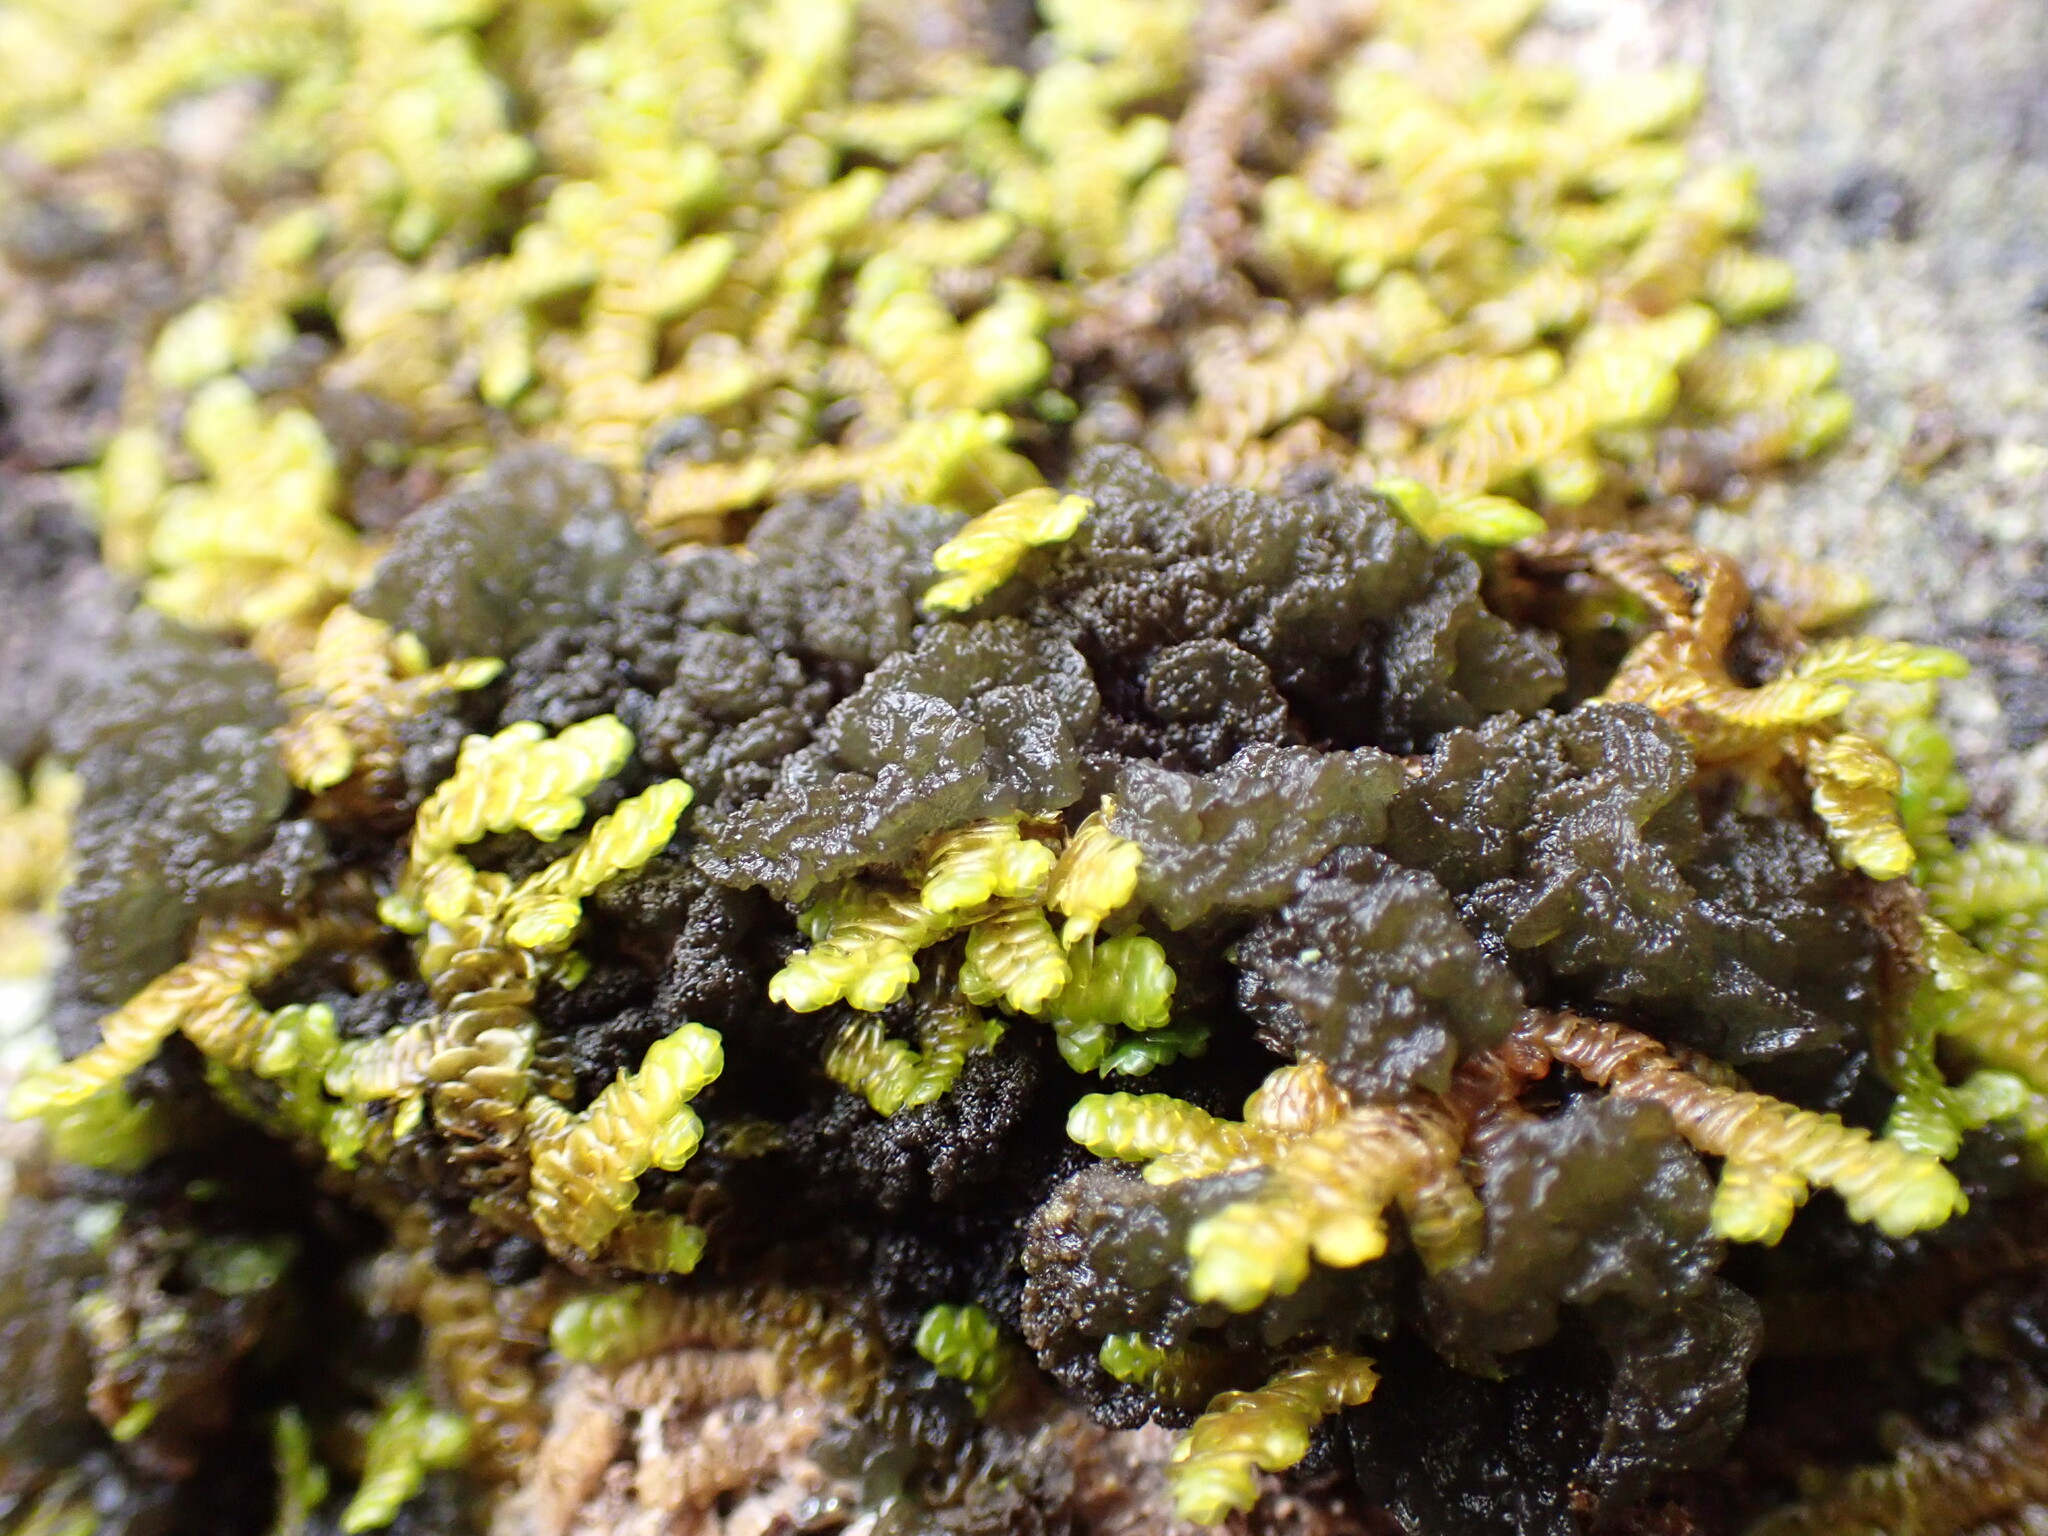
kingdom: Fungi
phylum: Ascomycota
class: Lecanoromycetes
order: Arctomiales
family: Arctomiaceae
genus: Arctomia
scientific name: Arctomia insignis
